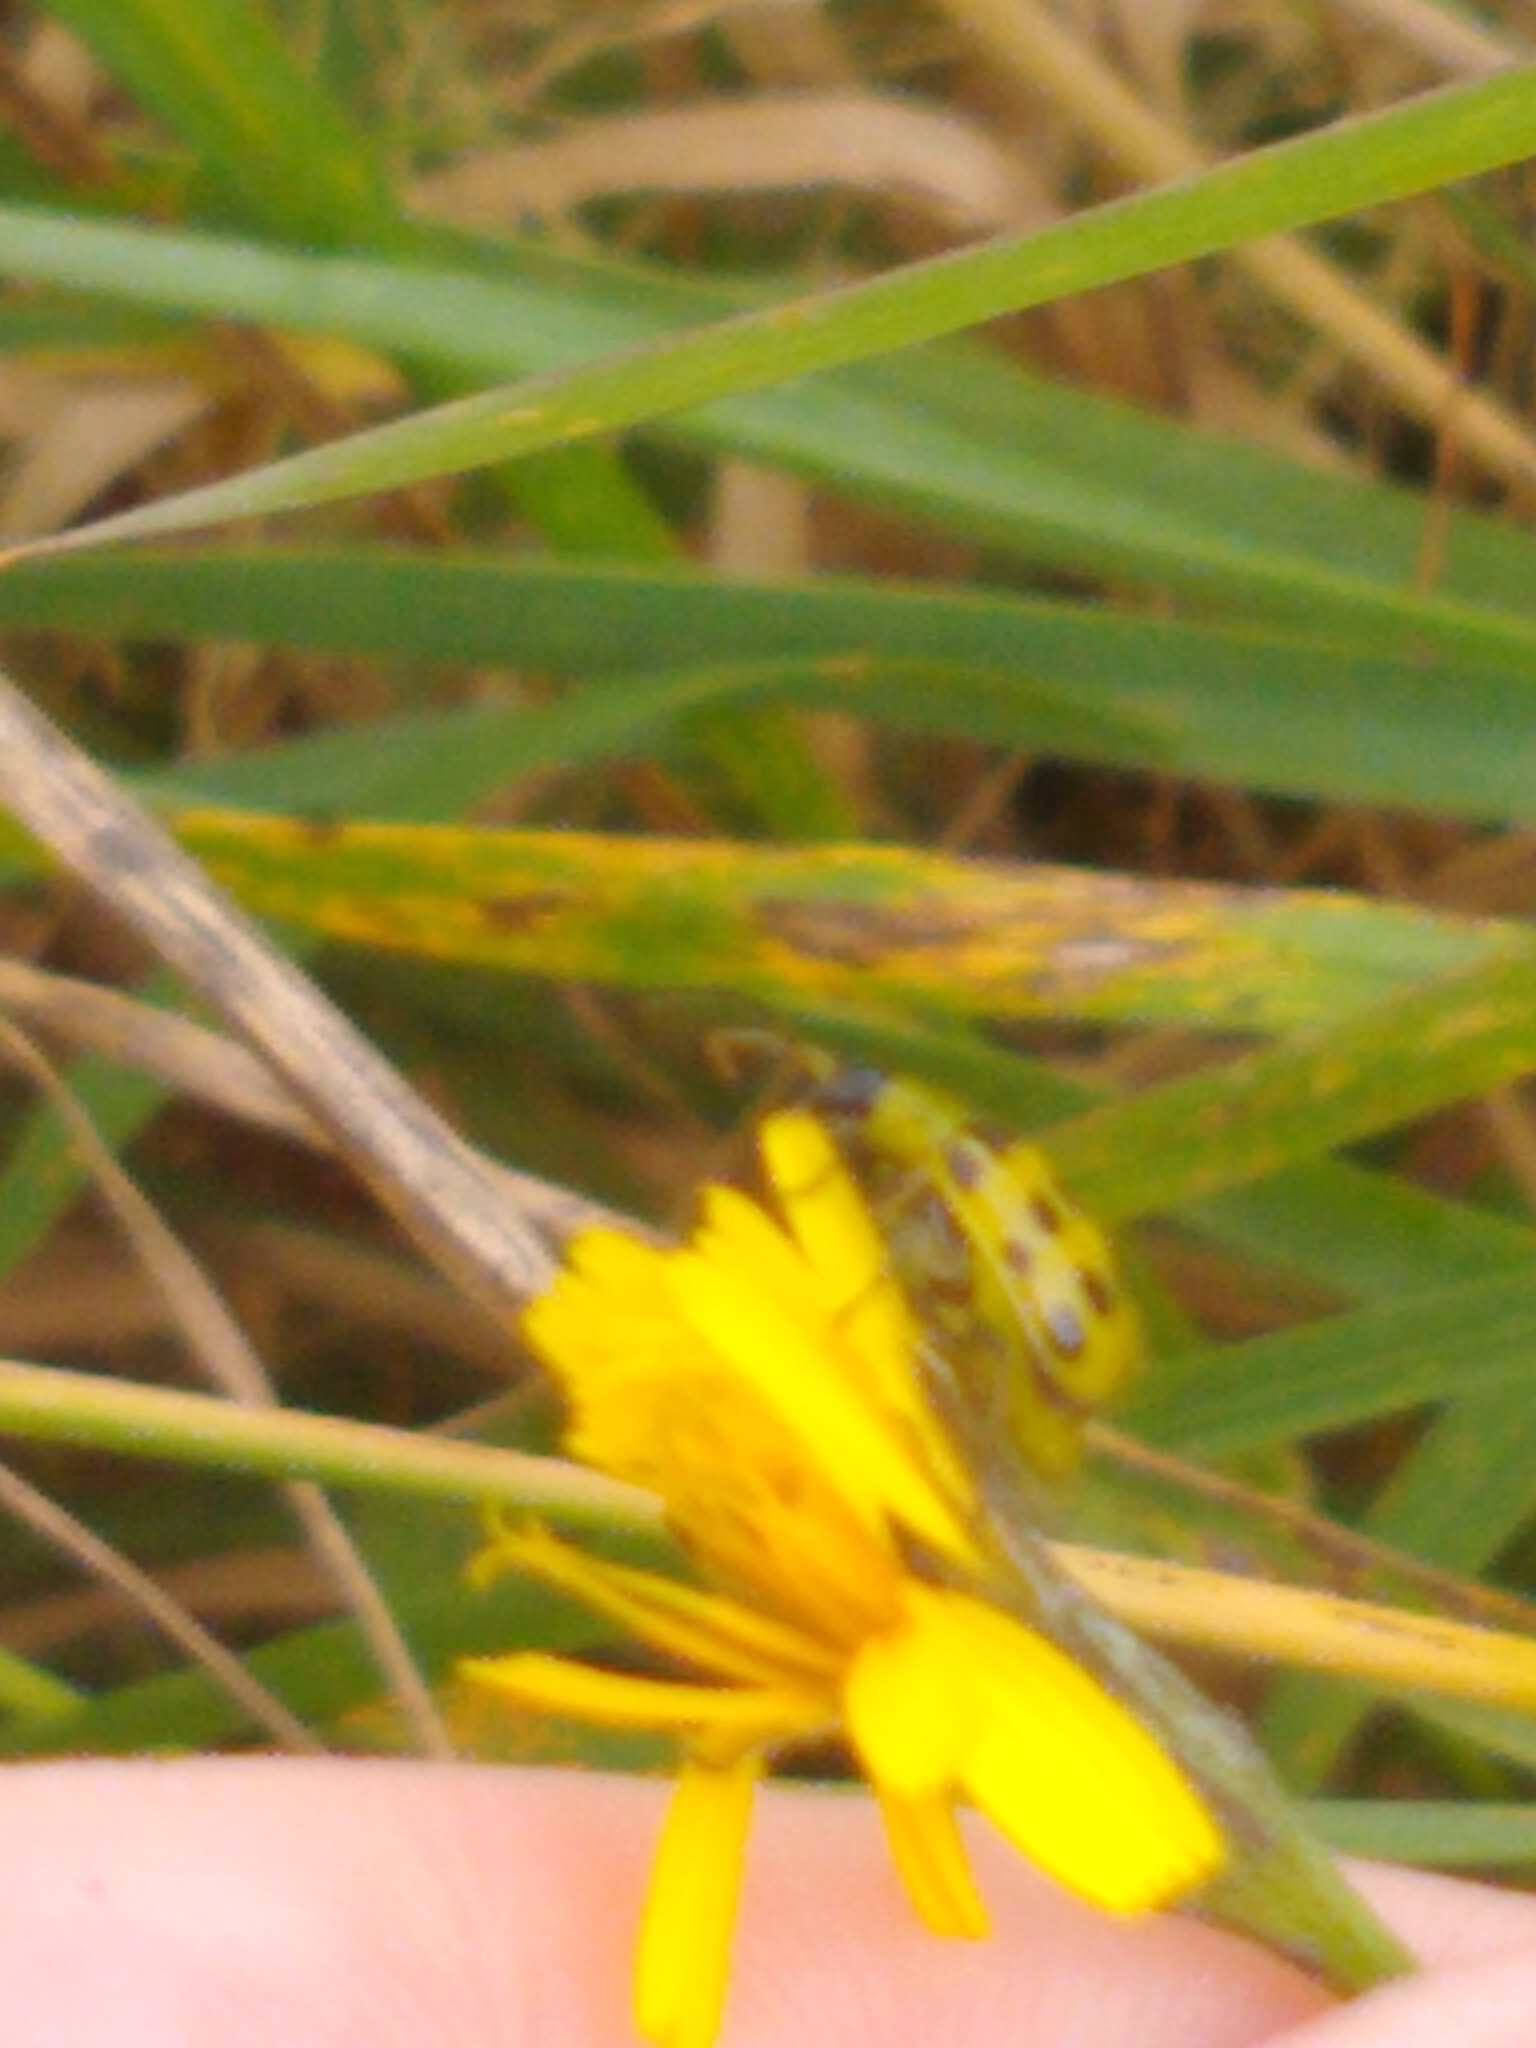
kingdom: Animalia
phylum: Arthropoda
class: Insecta
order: Coleoptera
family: Chrysomelidae
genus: Diabrotica
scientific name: Diabrotica undecimpunctata
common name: Spotted cucumber beetle
